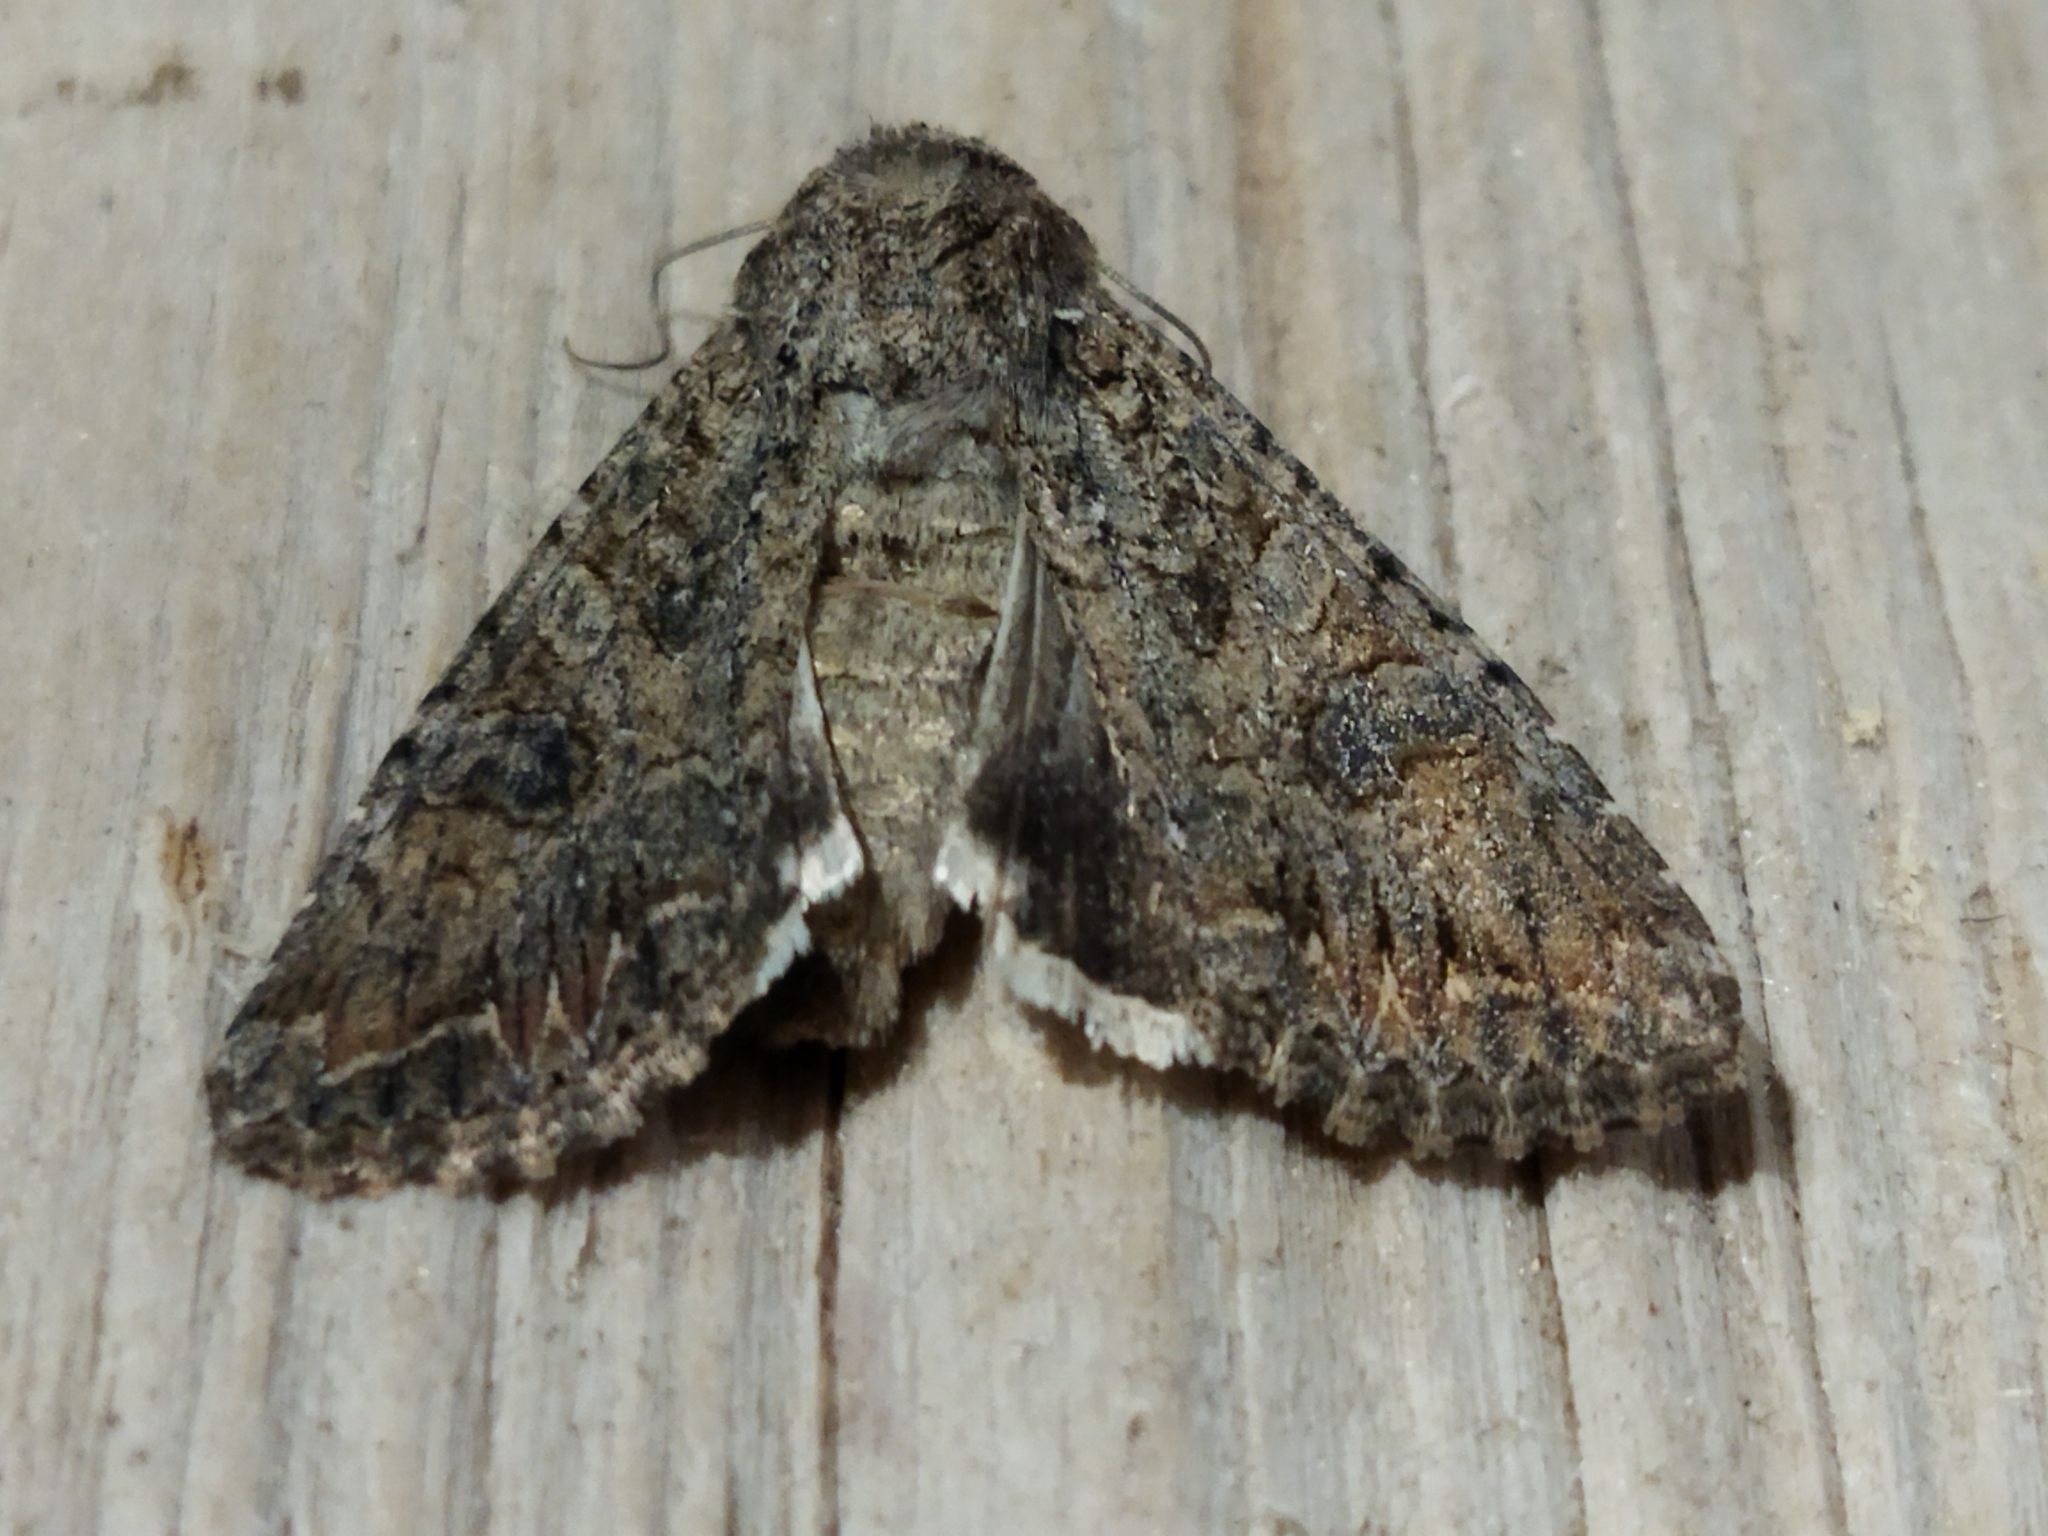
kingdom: Animalia
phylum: Arthropoda
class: Insecta
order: Lepidoptera
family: Noctuidae
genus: Anarta
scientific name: Anarta trifolii
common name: Clover cutworm moth
